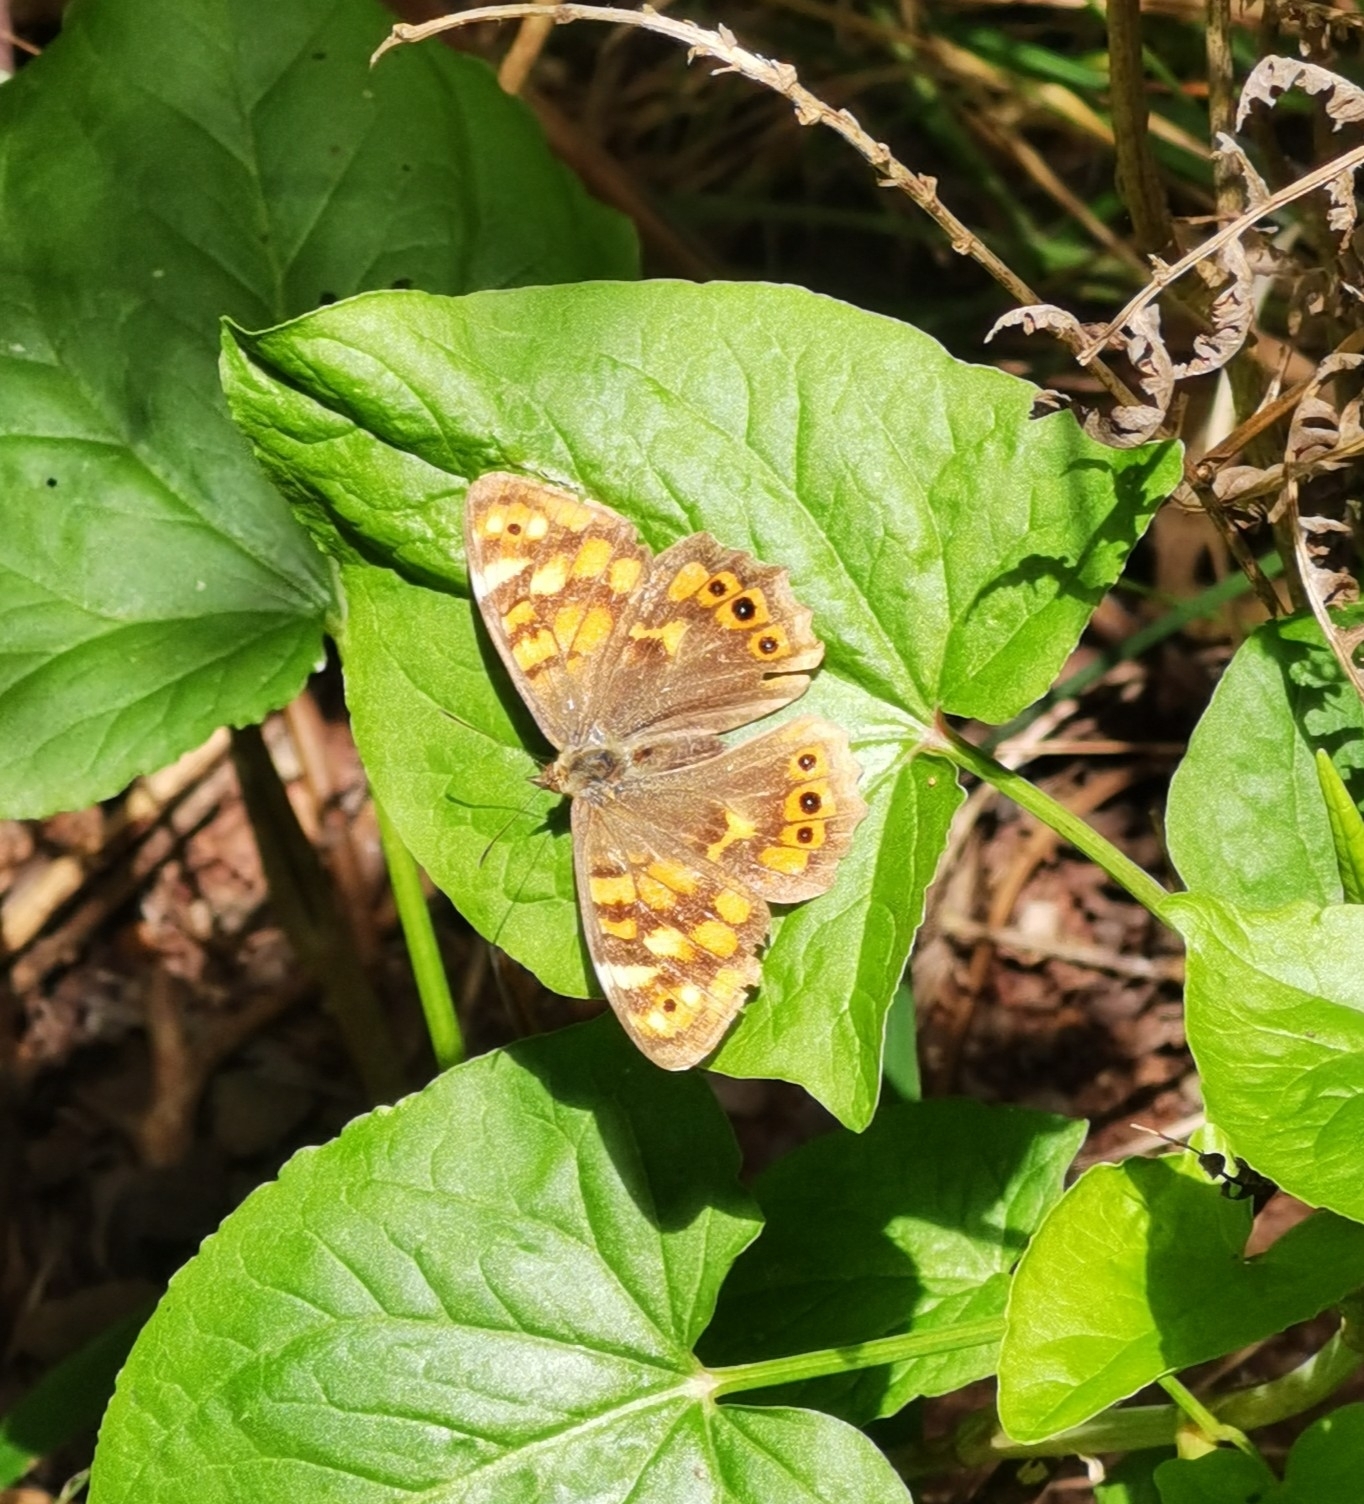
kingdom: Animalia
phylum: Arthropoda
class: Insecta
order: Lepidoptera
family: Nymphalidae
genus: Pararge
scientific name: Pararge aegeria
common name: Speckled wood
